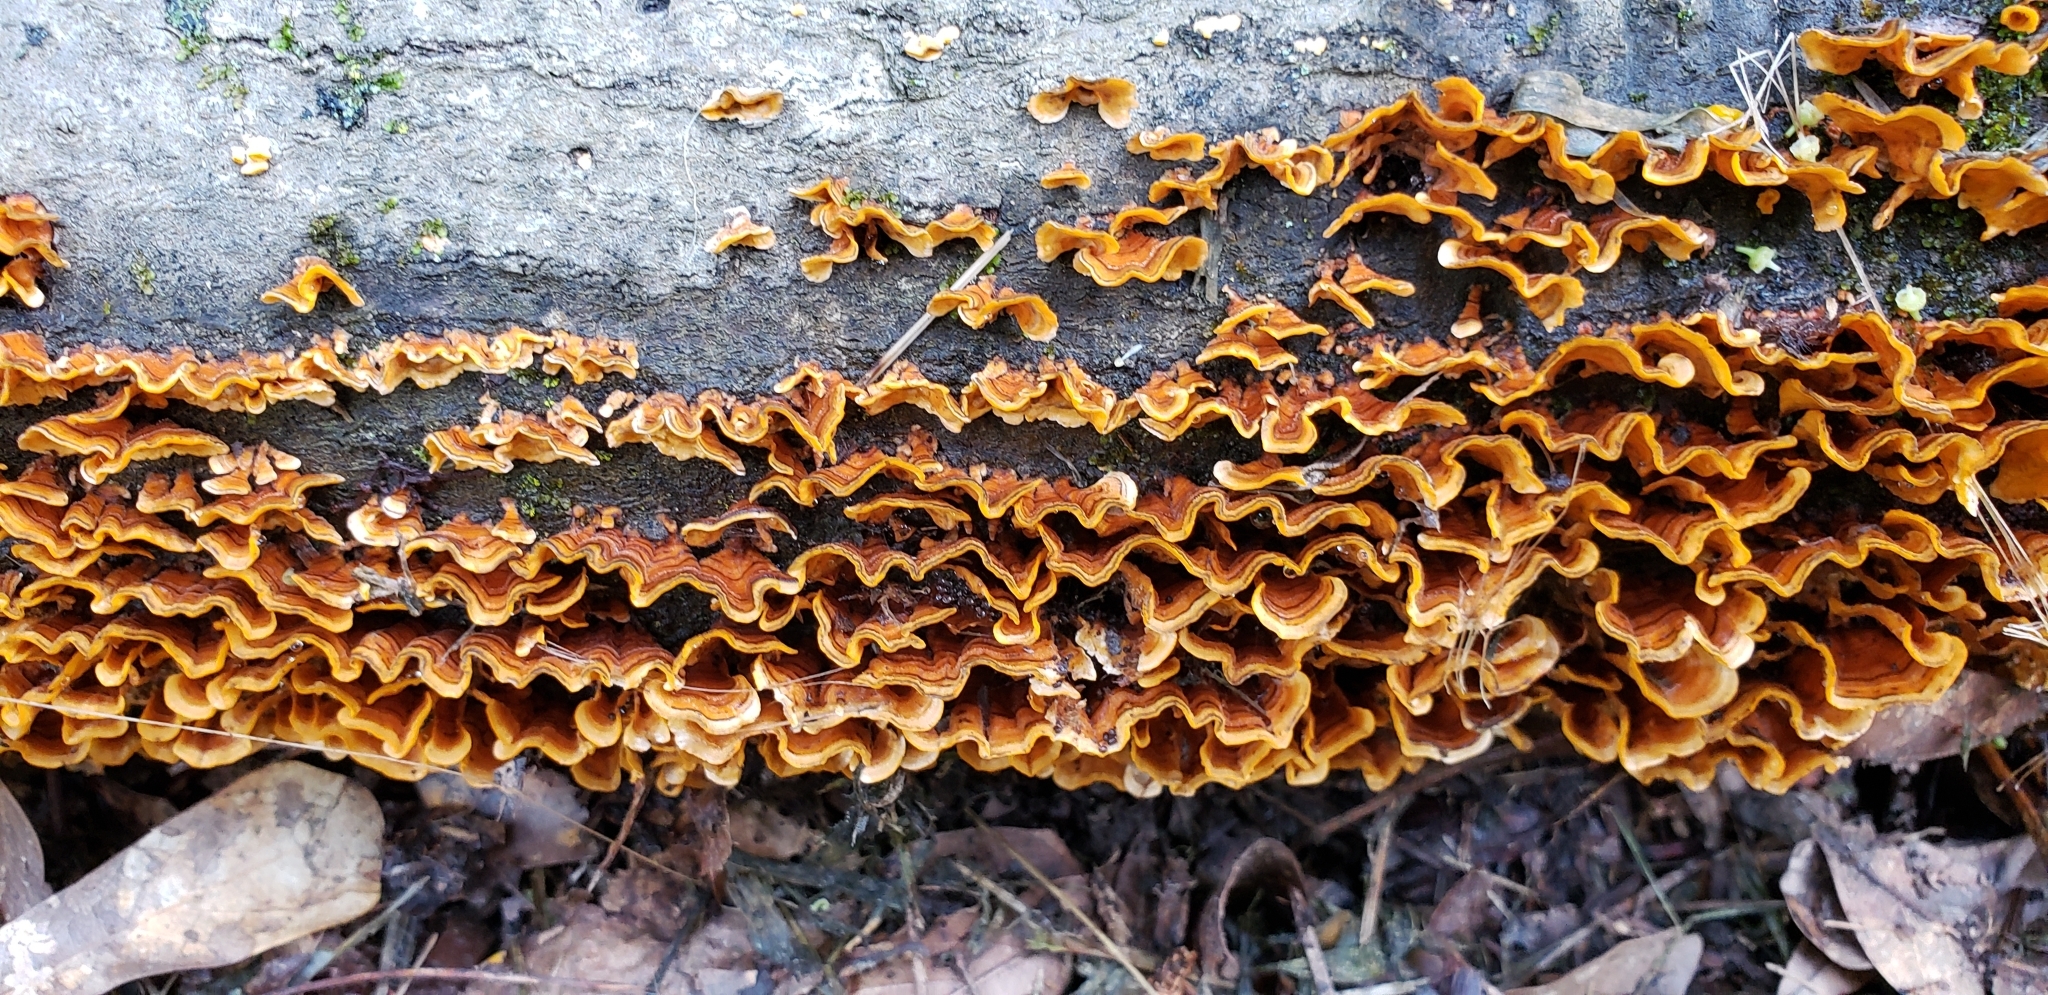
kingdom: Fungi
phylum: Basidiomycota
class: Agaricomycetes
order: Russulales
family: Stereaceae
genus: Stereum
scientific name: Stereum complicatum
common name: Crowded parchment
